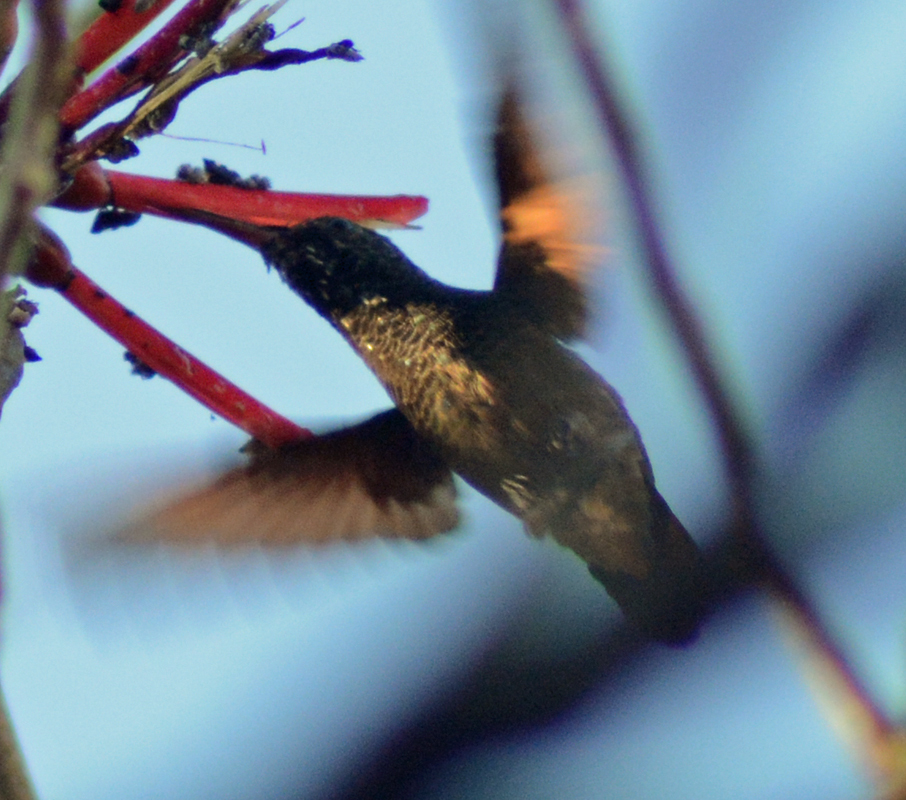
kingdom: Animalia
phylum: Chordata
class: Aves
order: Apodiformes
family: Trochilidae
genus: Saucerottia
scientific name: Saucerottia beryllina
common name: Berylline hummingbird
